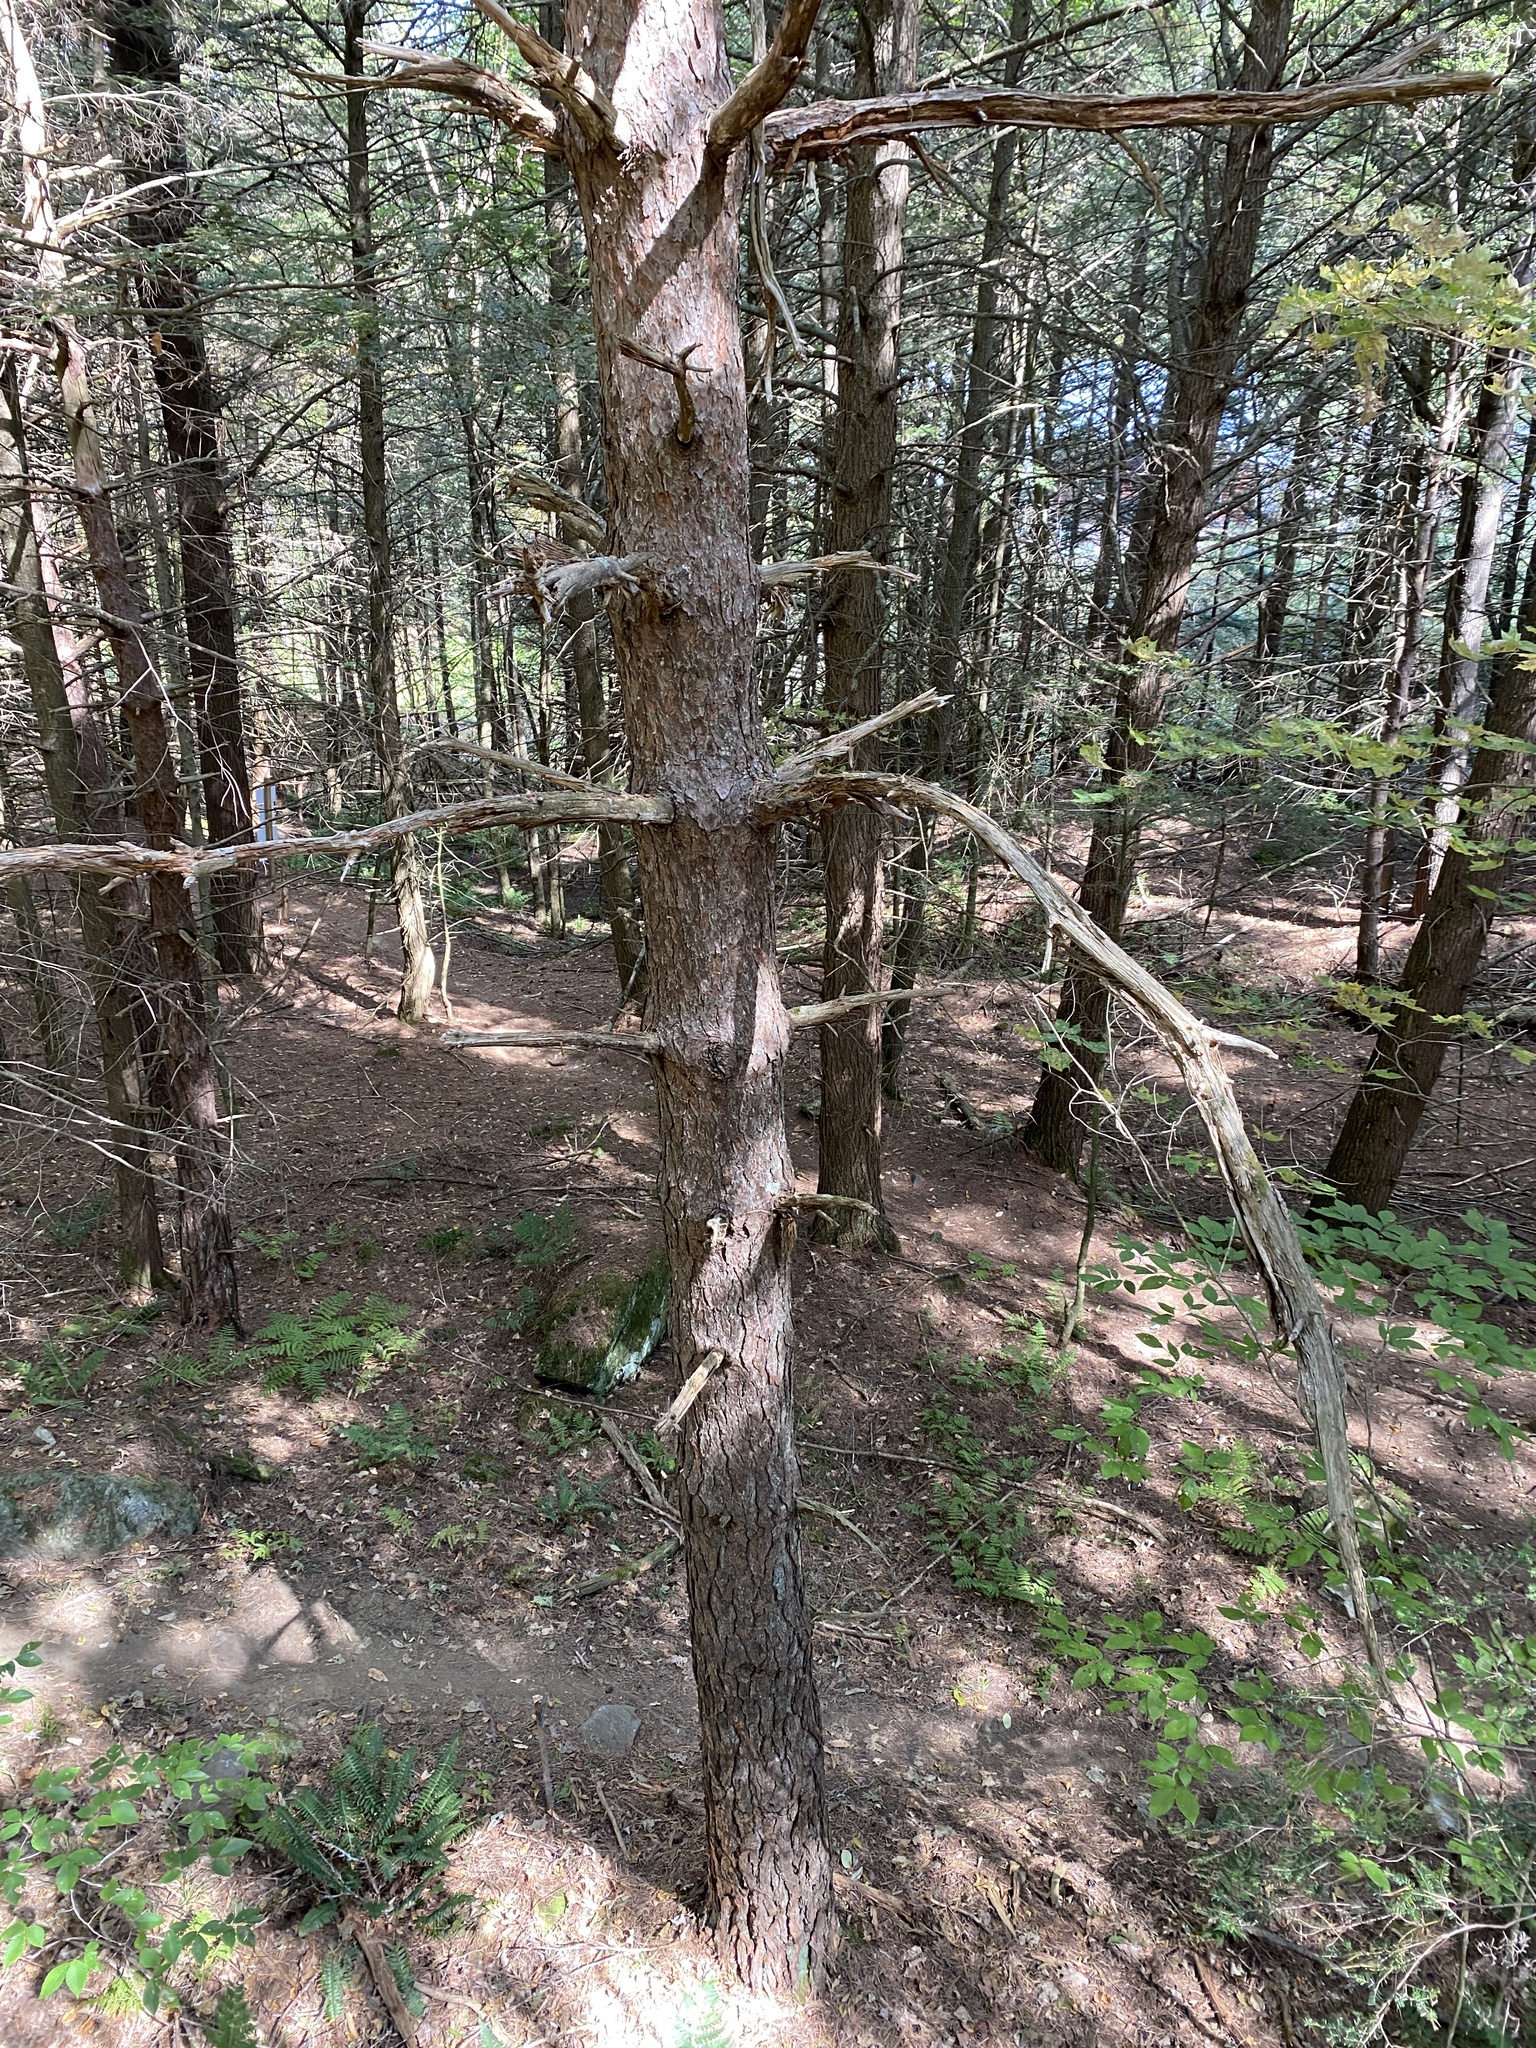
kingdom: Plantae
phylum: Tracheophyta
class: Pinopsida
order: Pinales
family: Pinaceae
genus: Pinus
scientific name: Pinus sylvestris
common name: Scots pine
